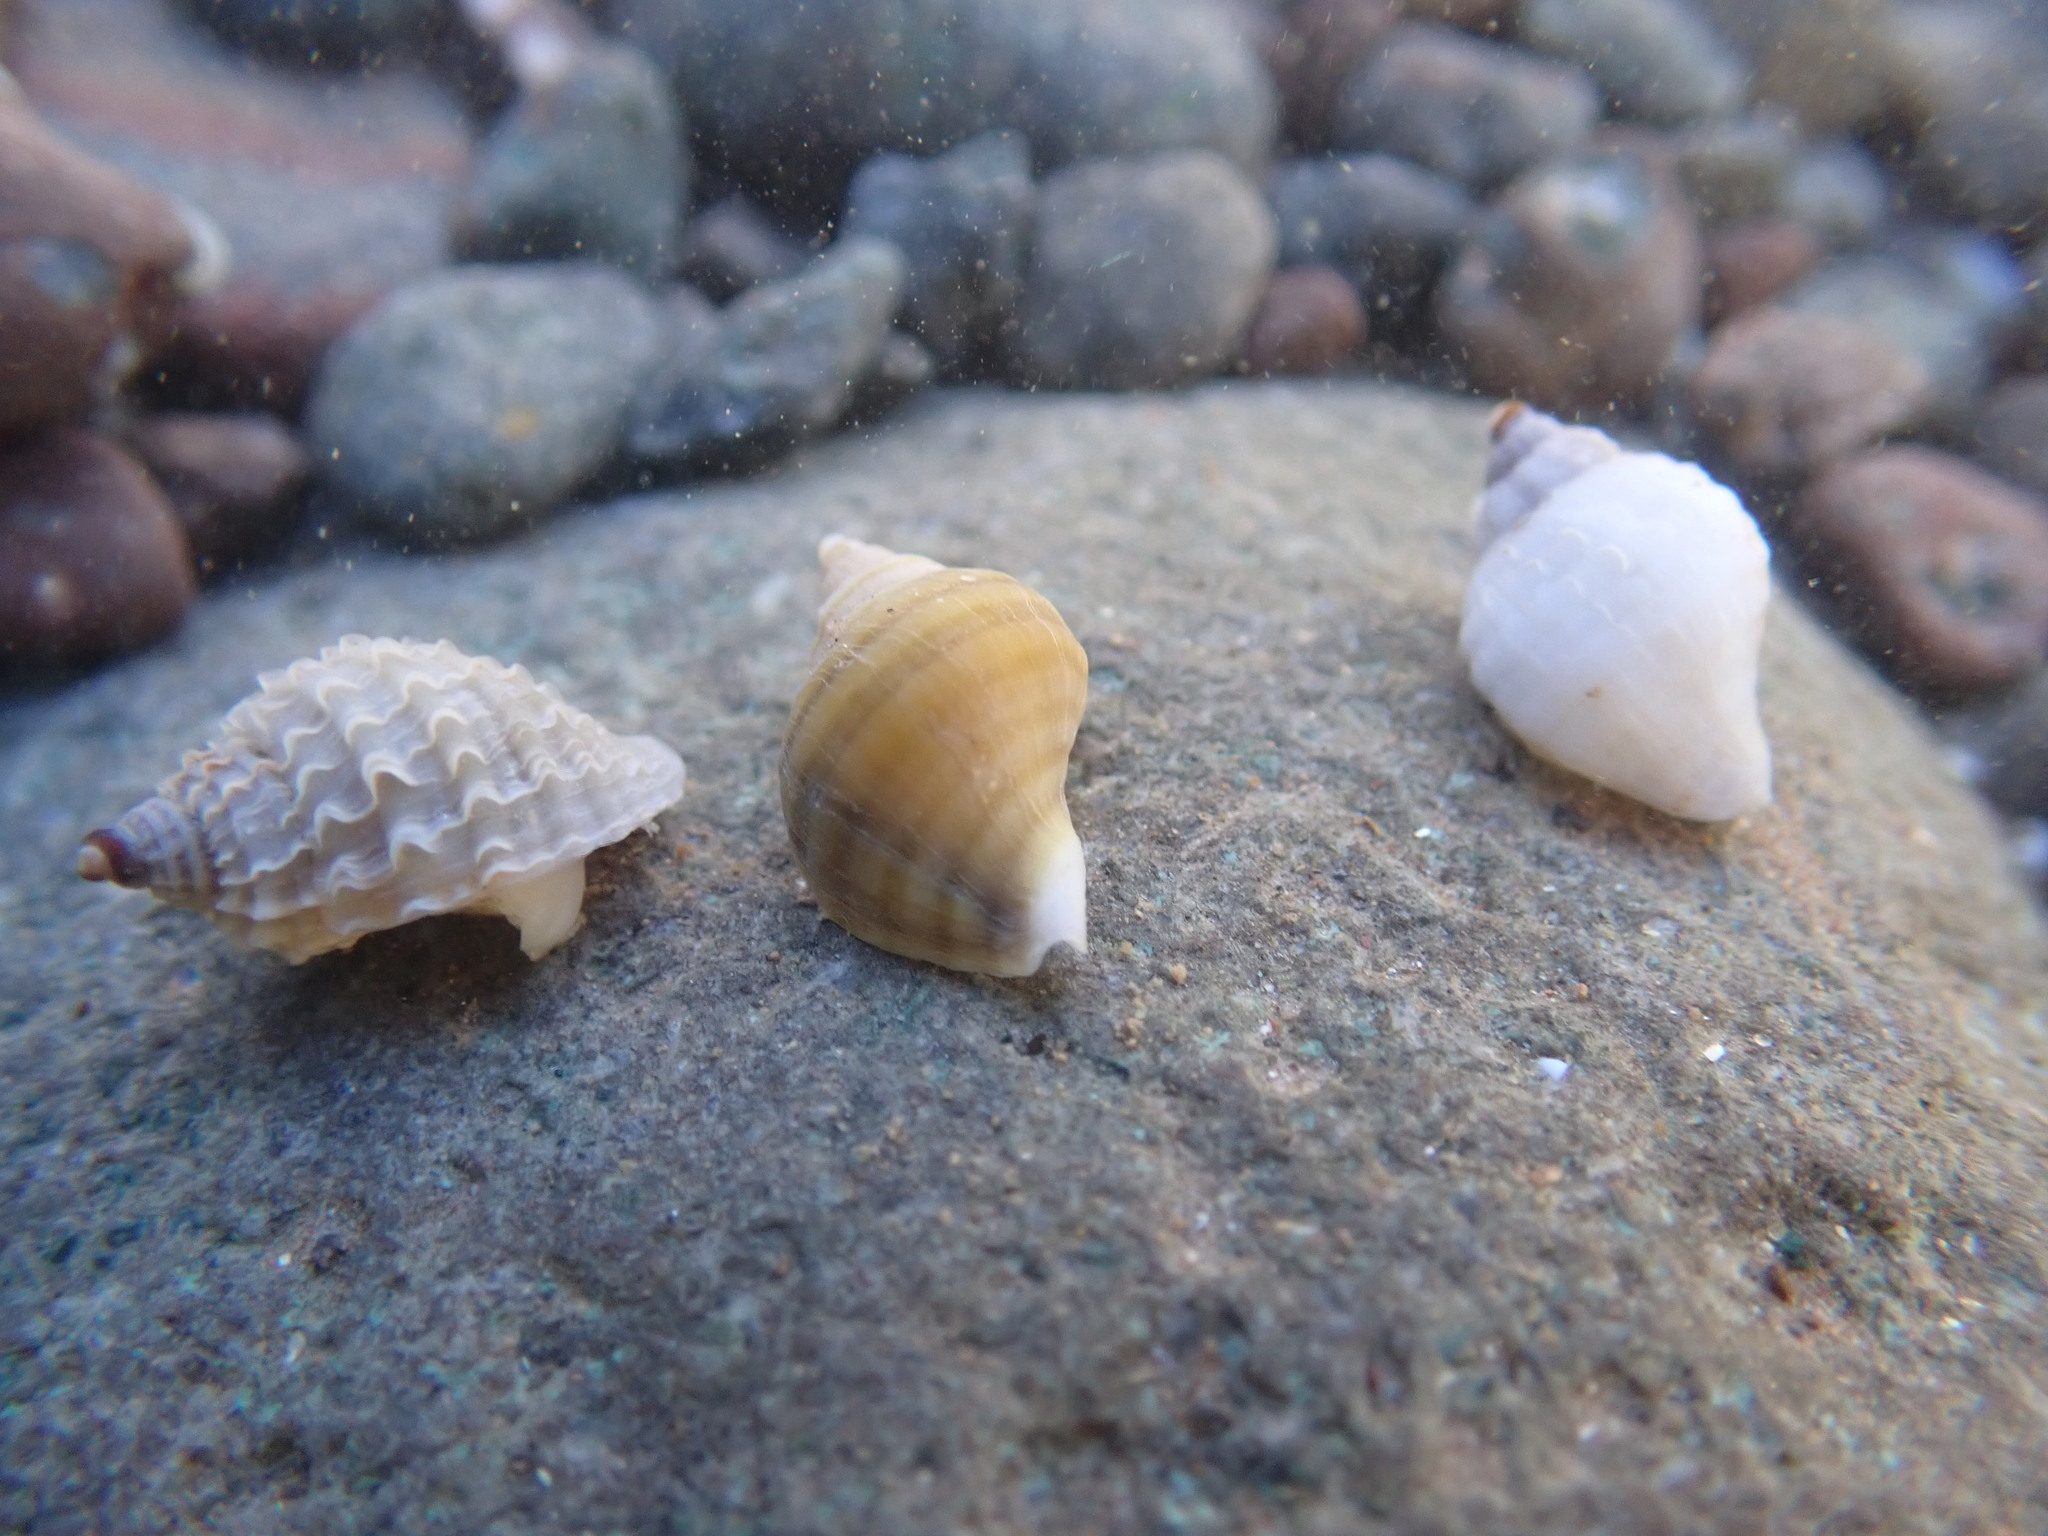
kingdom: Animalia
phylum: Mollusca
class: Gastropoda
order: Neogastropoda
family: Muricidae
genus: Nucella
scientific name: Nucella lapillus
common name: Dog whelk
